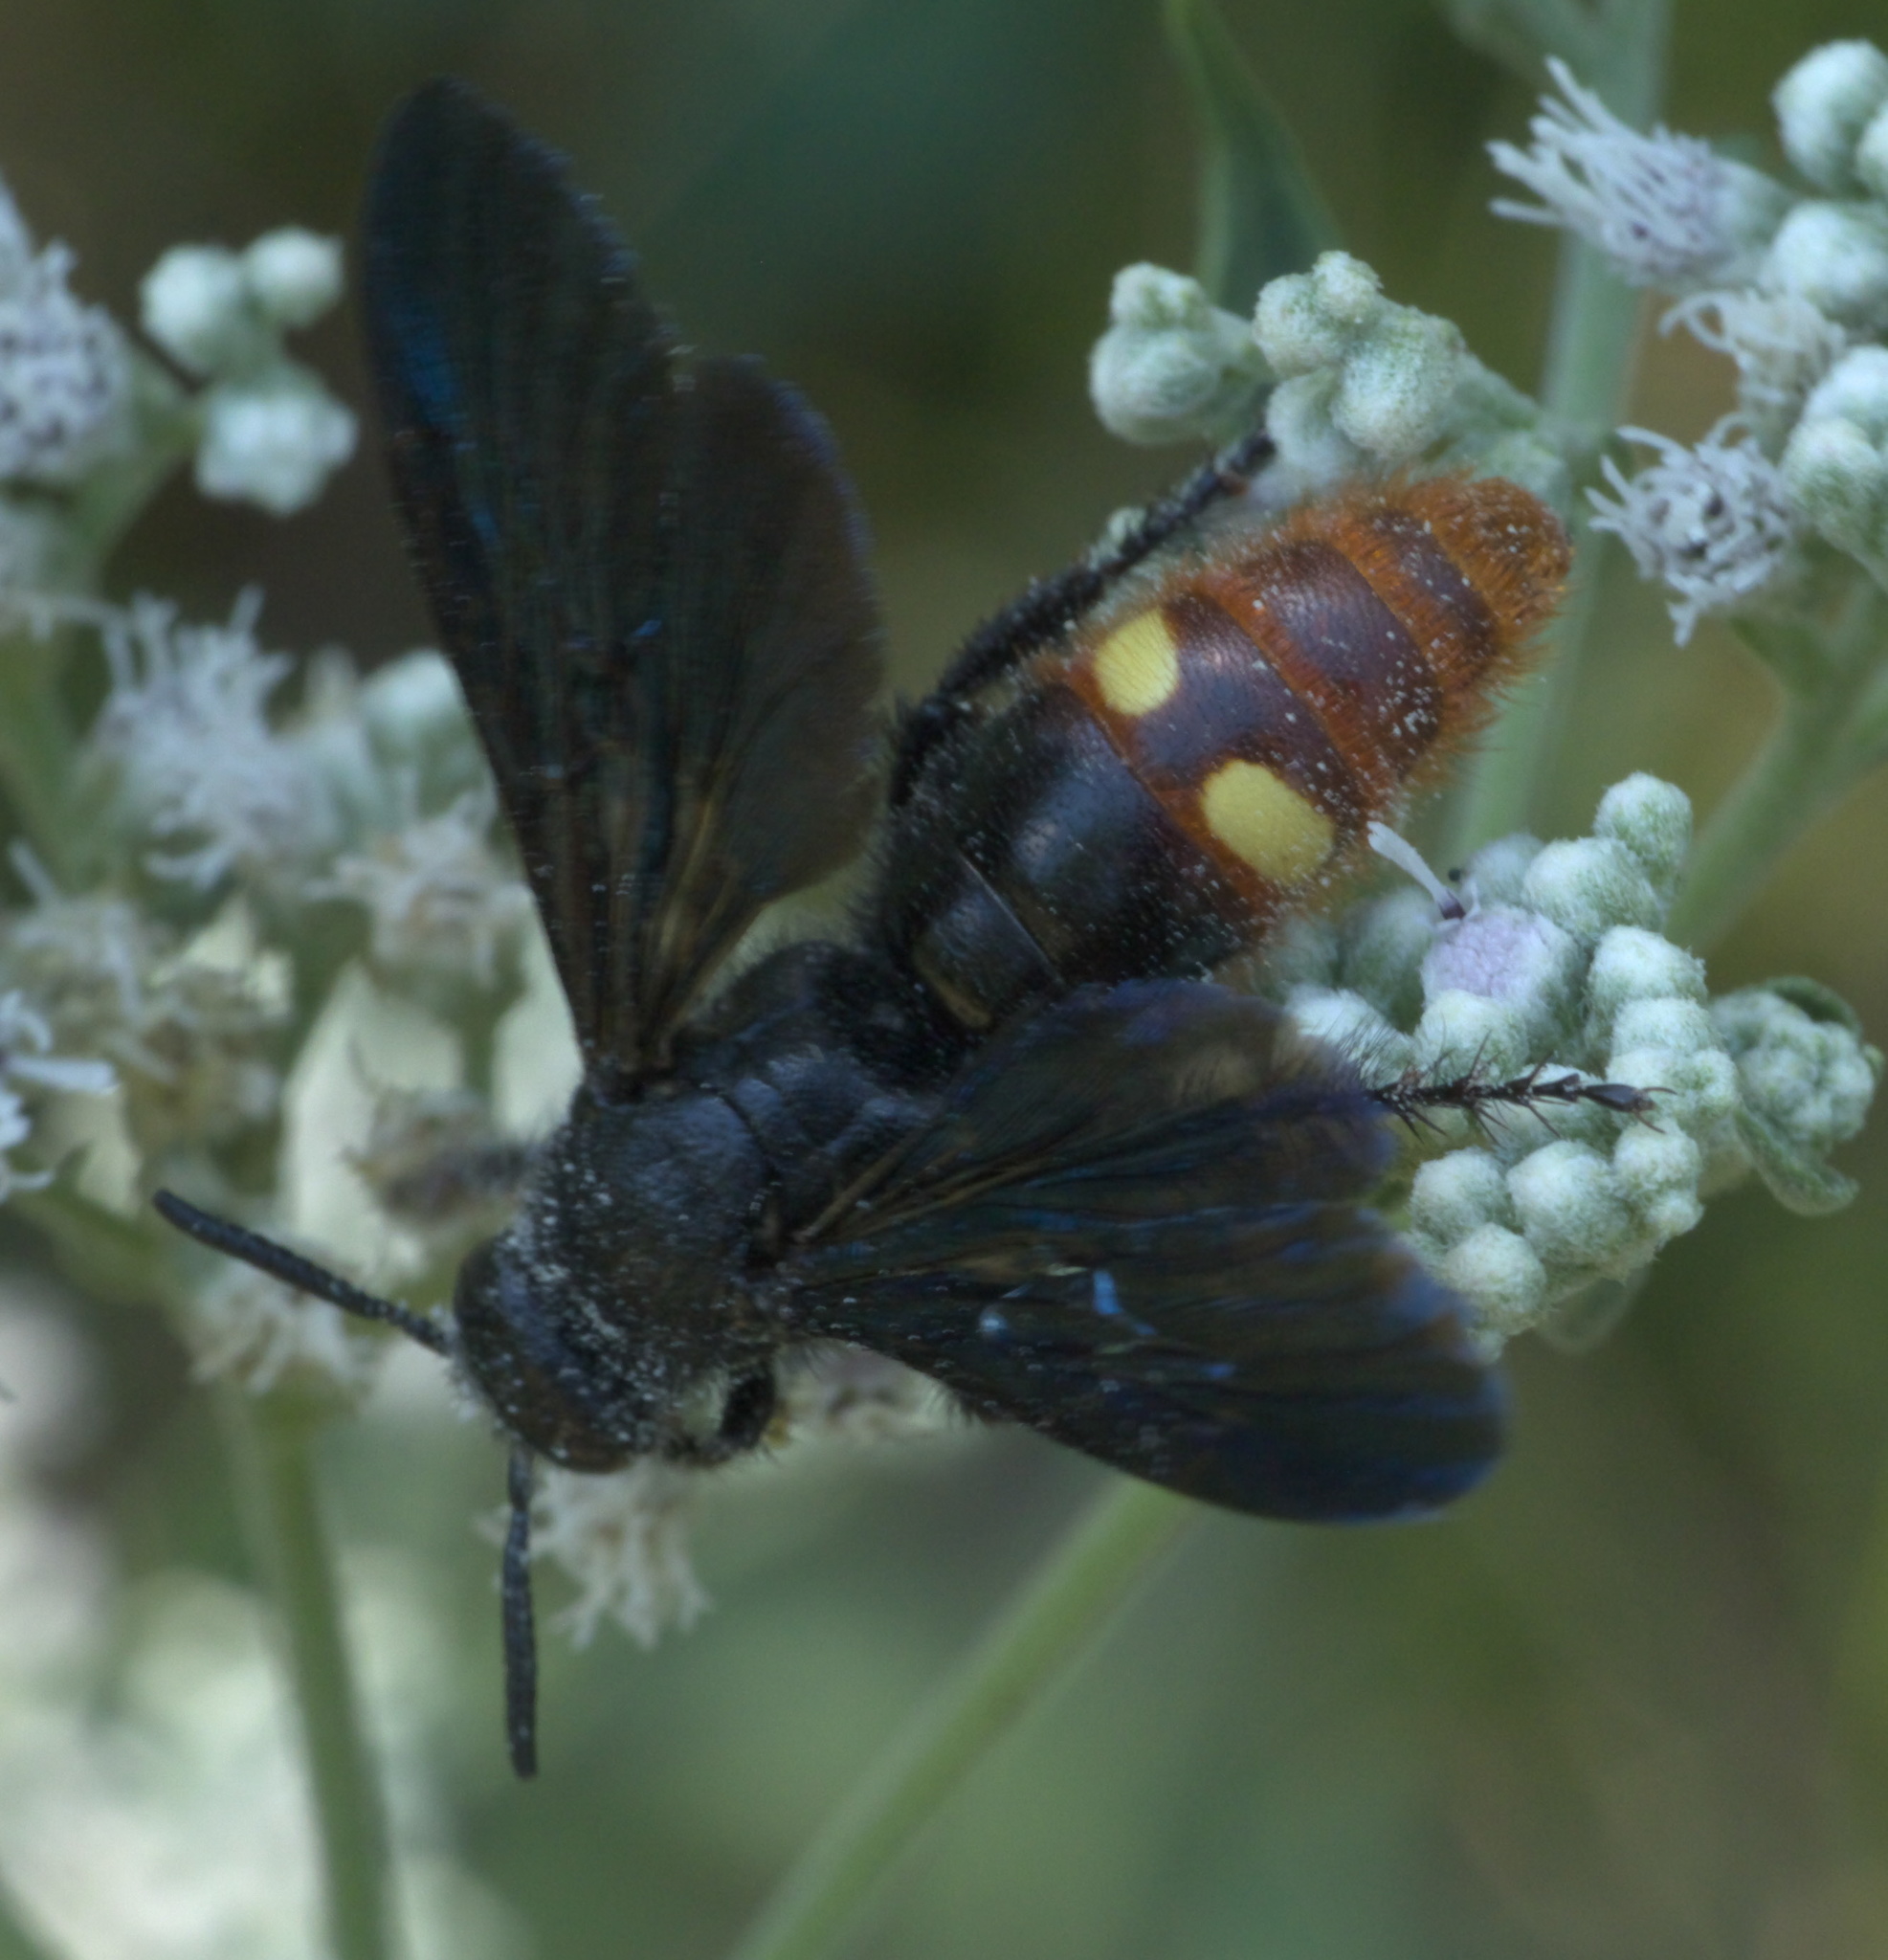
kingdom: Animalia
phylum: Arthropoda
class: Insecta
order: Hymenoptera
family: Scoliidae
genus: Scolia
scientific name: Scolia dubia
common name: Blue-winged scoliid wasp
